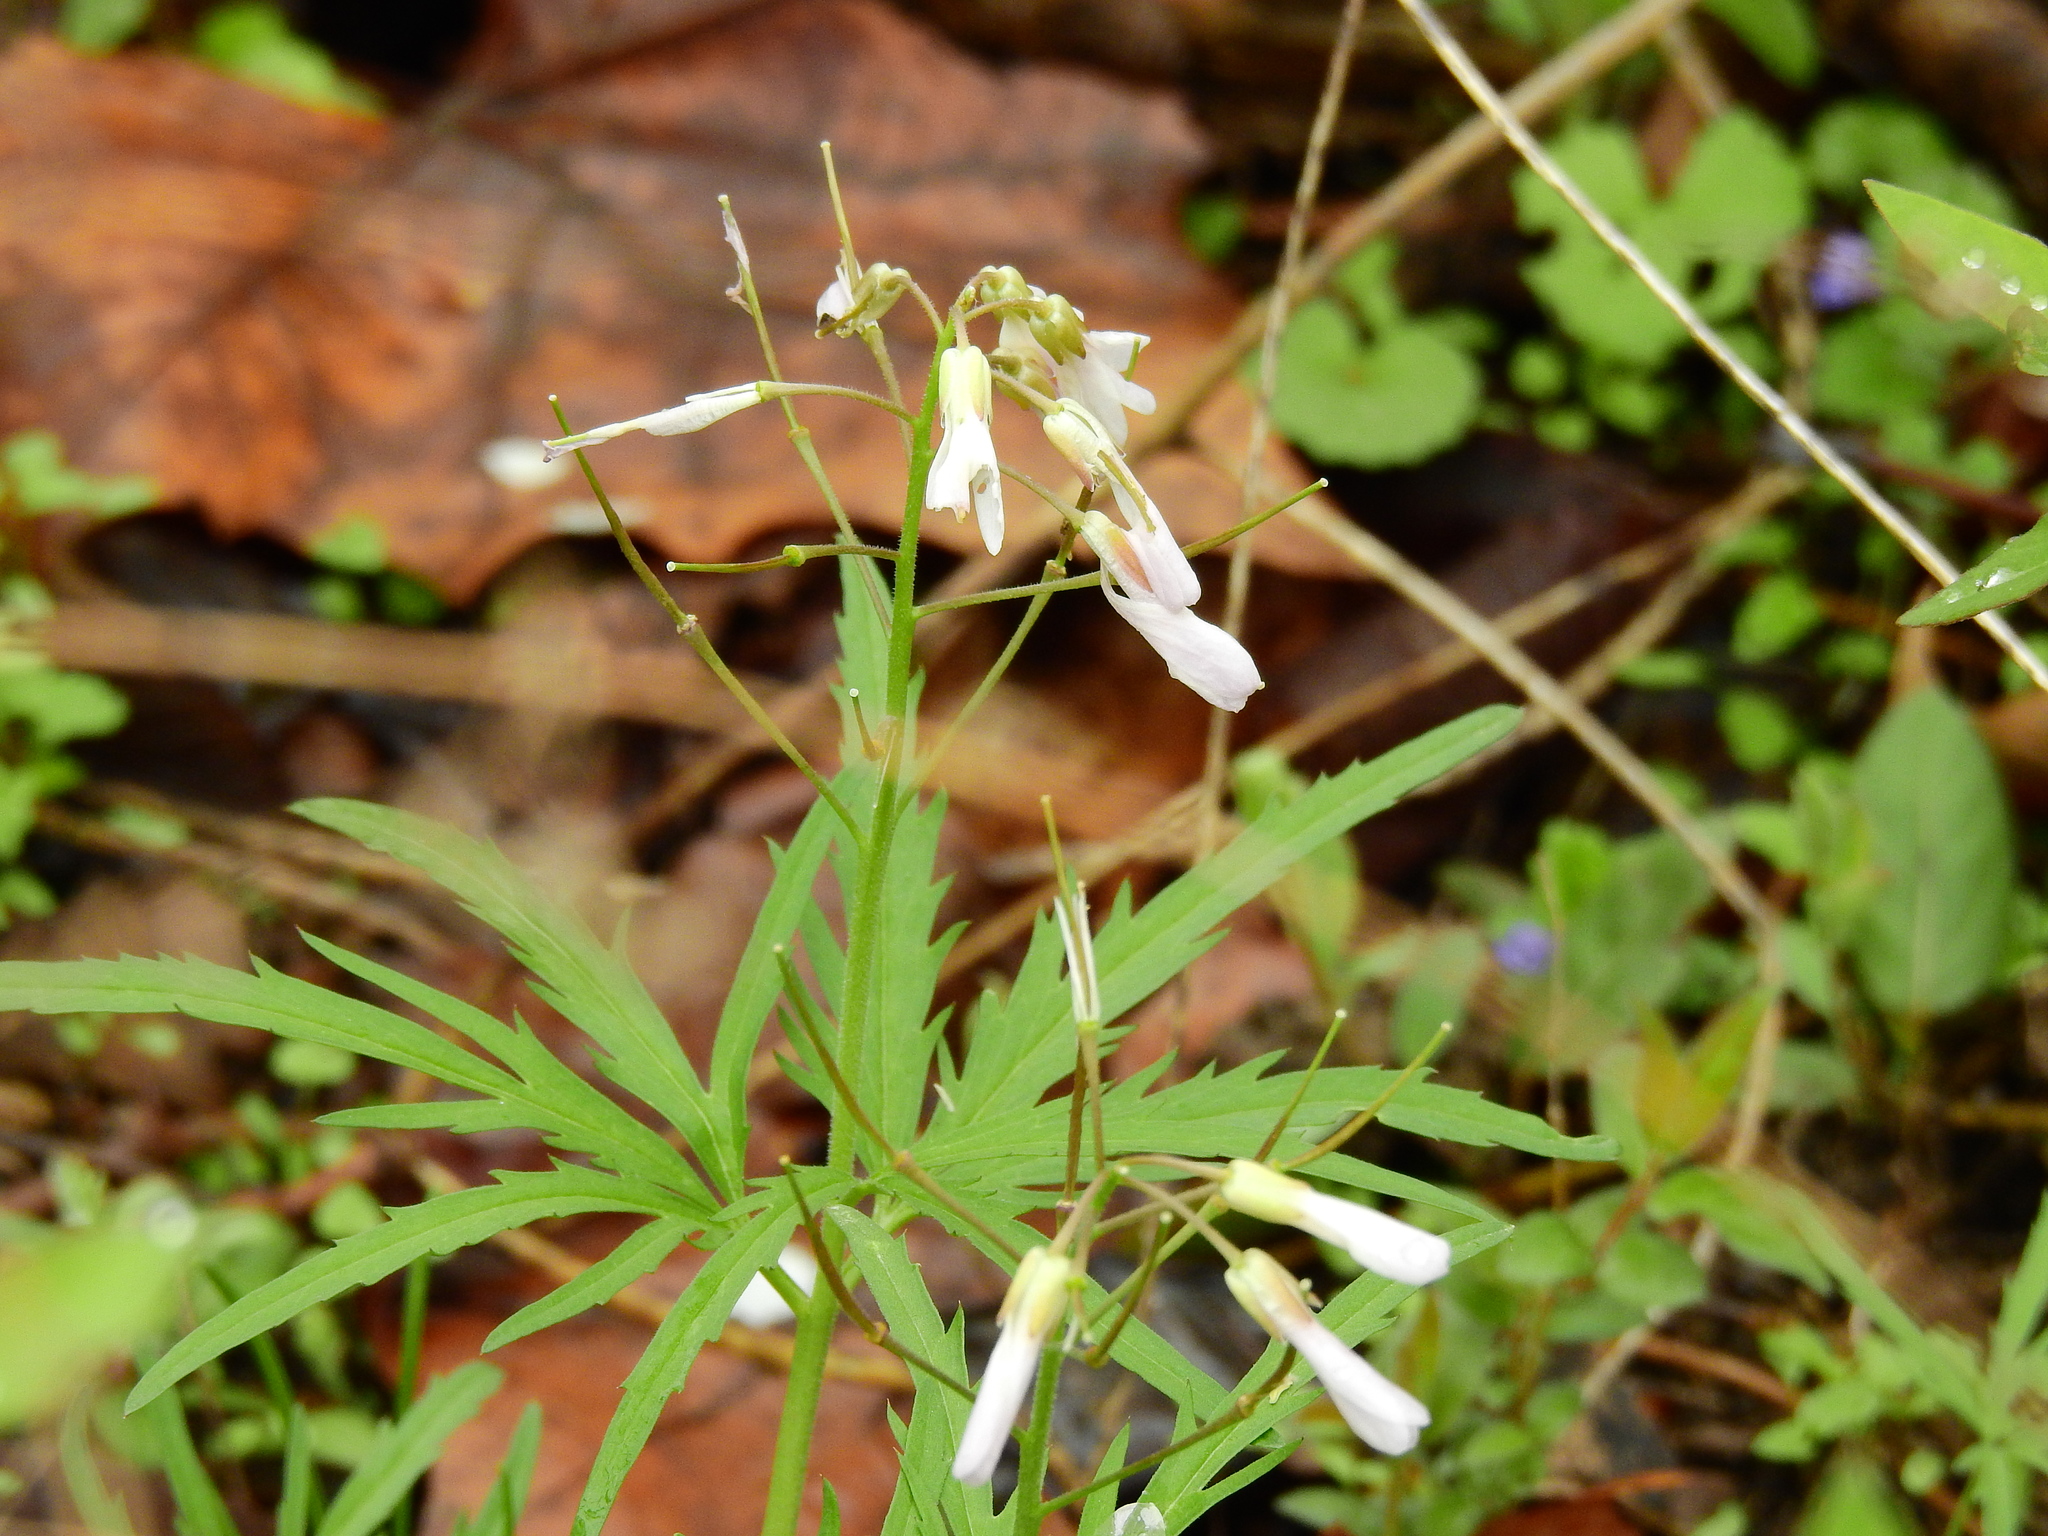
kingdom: Plantae
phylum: Tracheophyta
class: Magnoliopsida
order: Brassicales
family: Brassicaceae
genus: Cardamine
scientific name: Cardamine concatenata
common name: Cut-leaf toothcup
